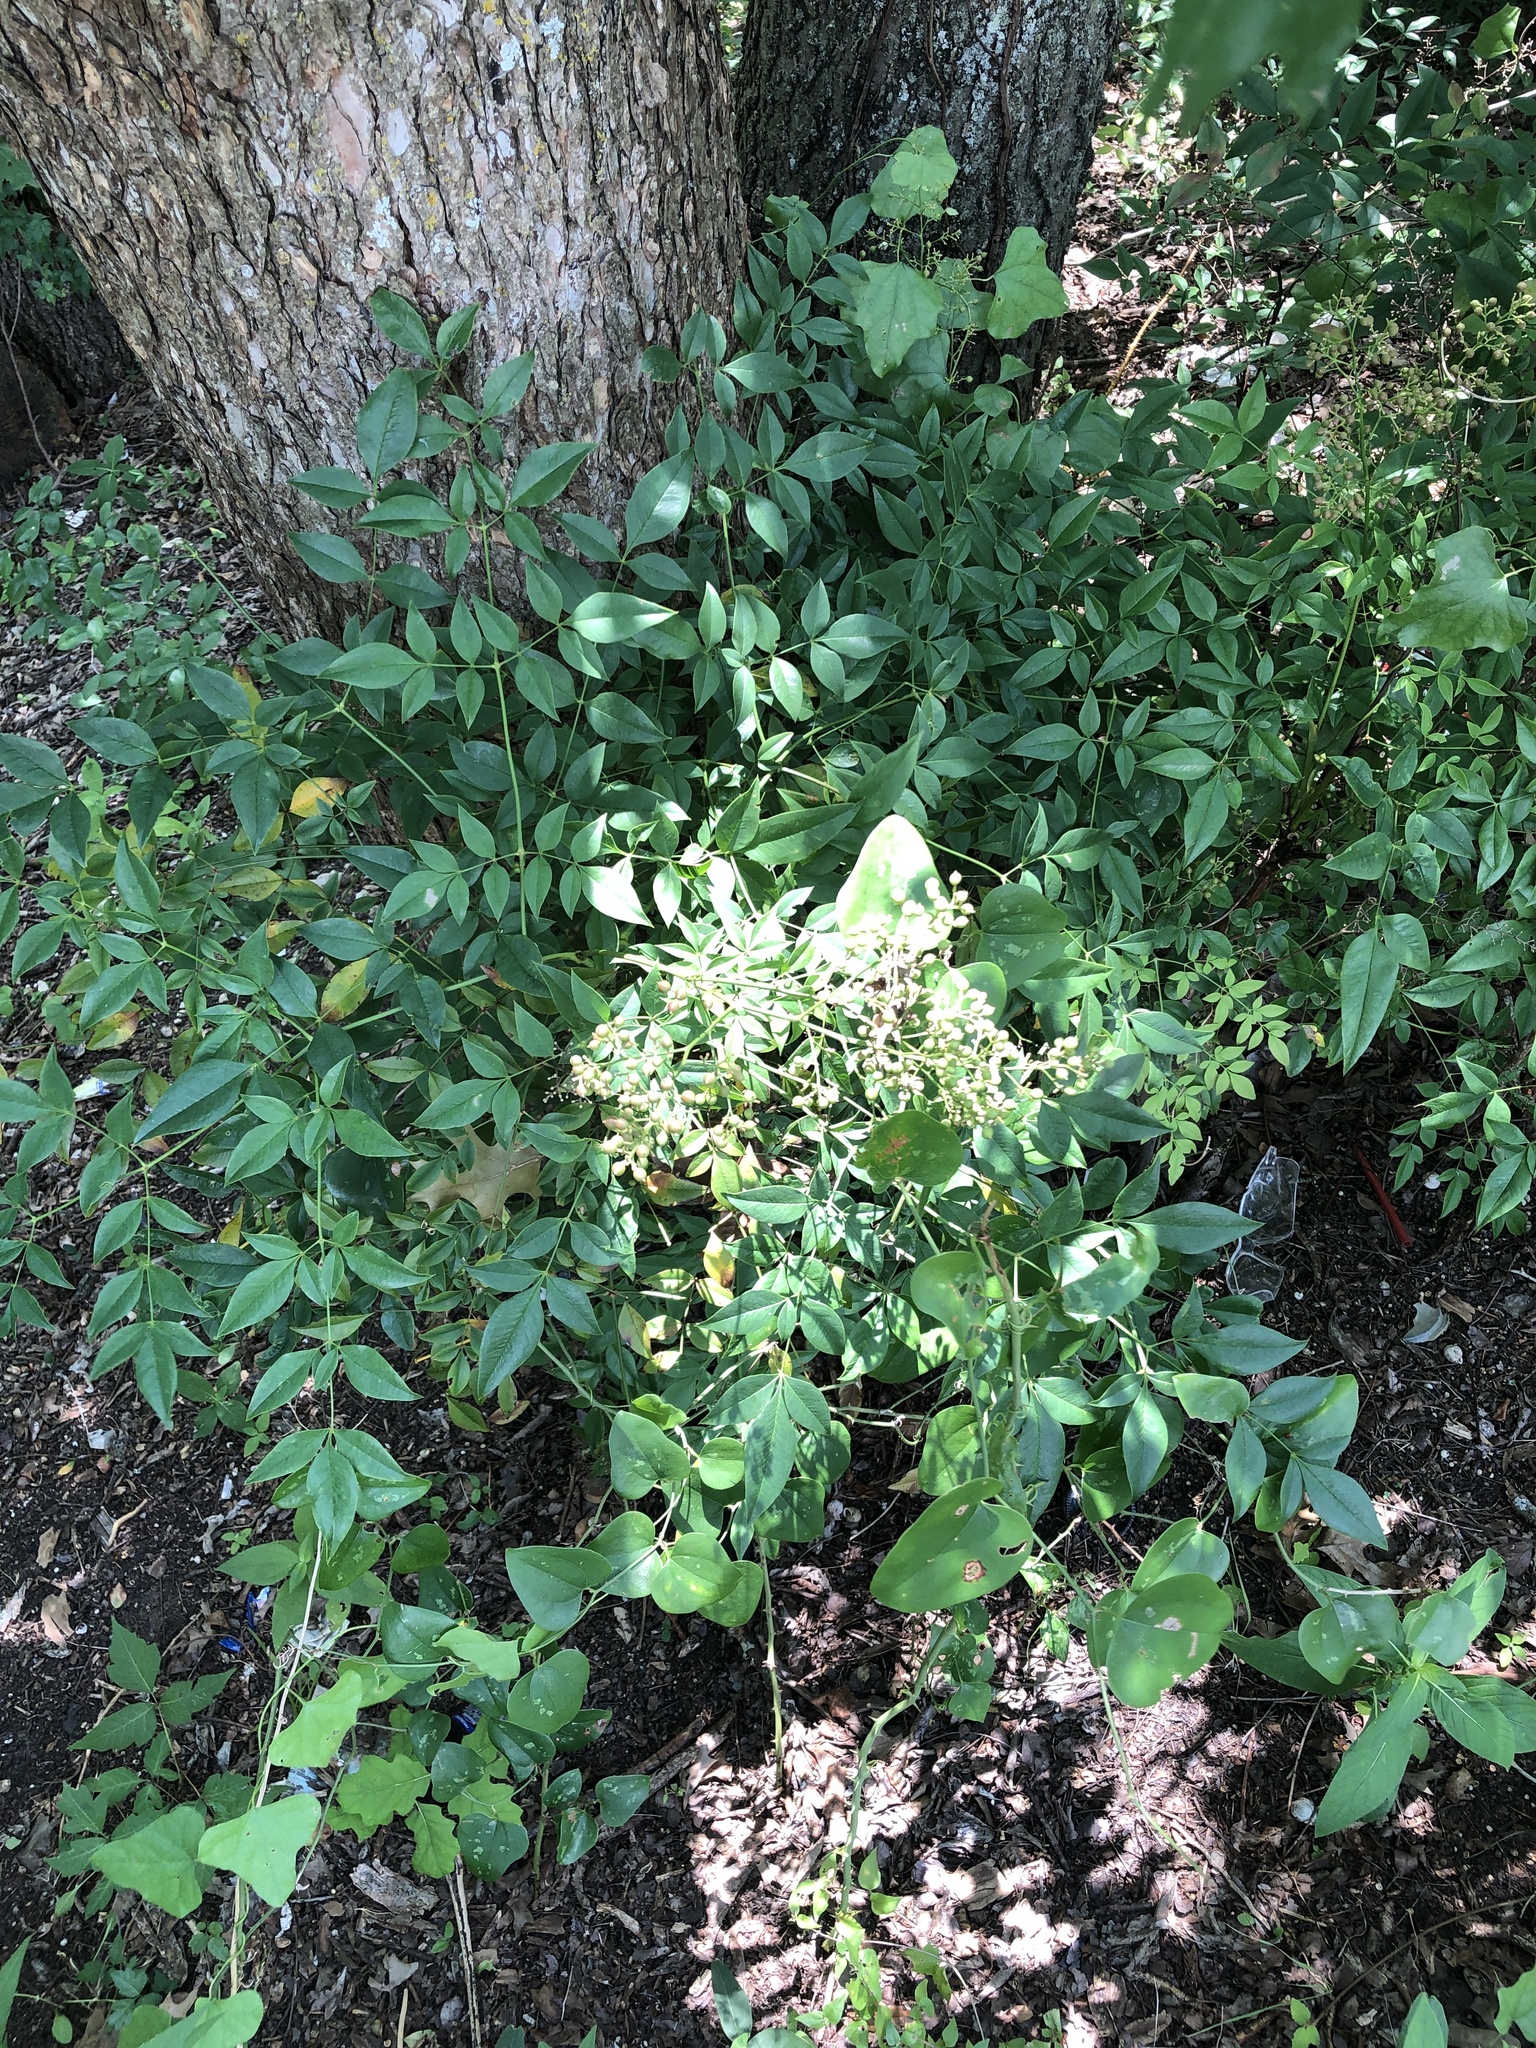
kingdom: Plantae
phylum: Tracheophyta
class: Magnoliopsida
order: Ranunculales
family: Berberidaceae
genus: Nandina
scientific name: Nandina domestica
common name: Sacred bamboo
